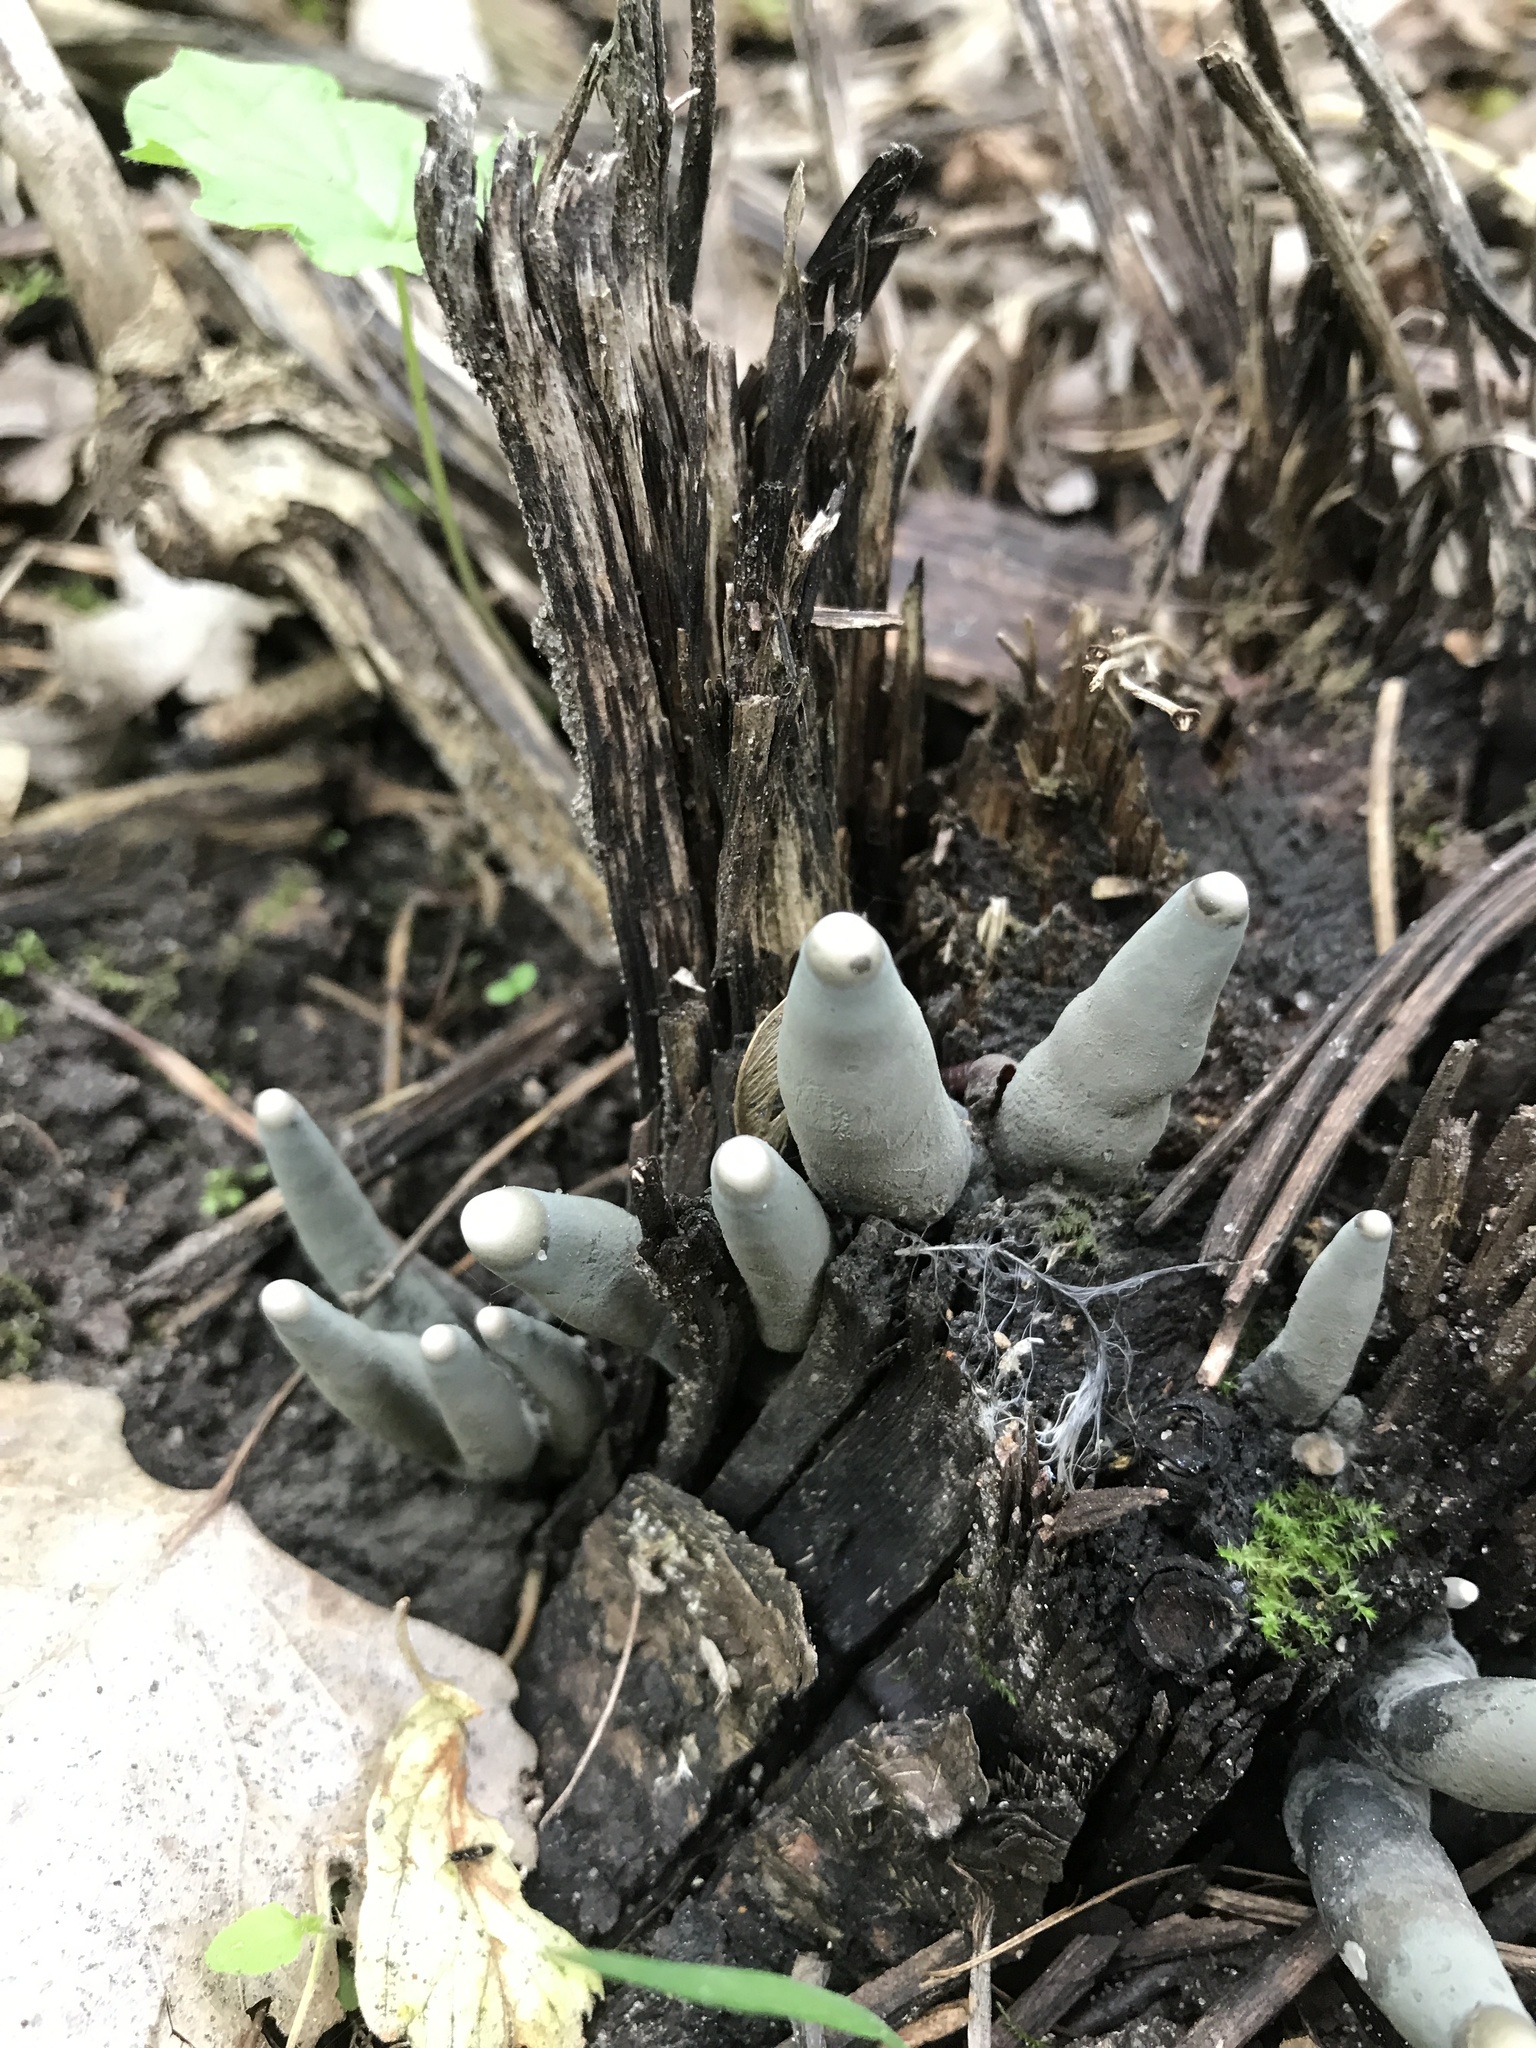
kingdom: Fungi
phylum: Ascomycota
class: Sordariomycetes
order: Xylariales
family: Xylariaceae
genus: Xylaria
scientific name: Xylaria polymorpha
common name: Dead man's fingers
